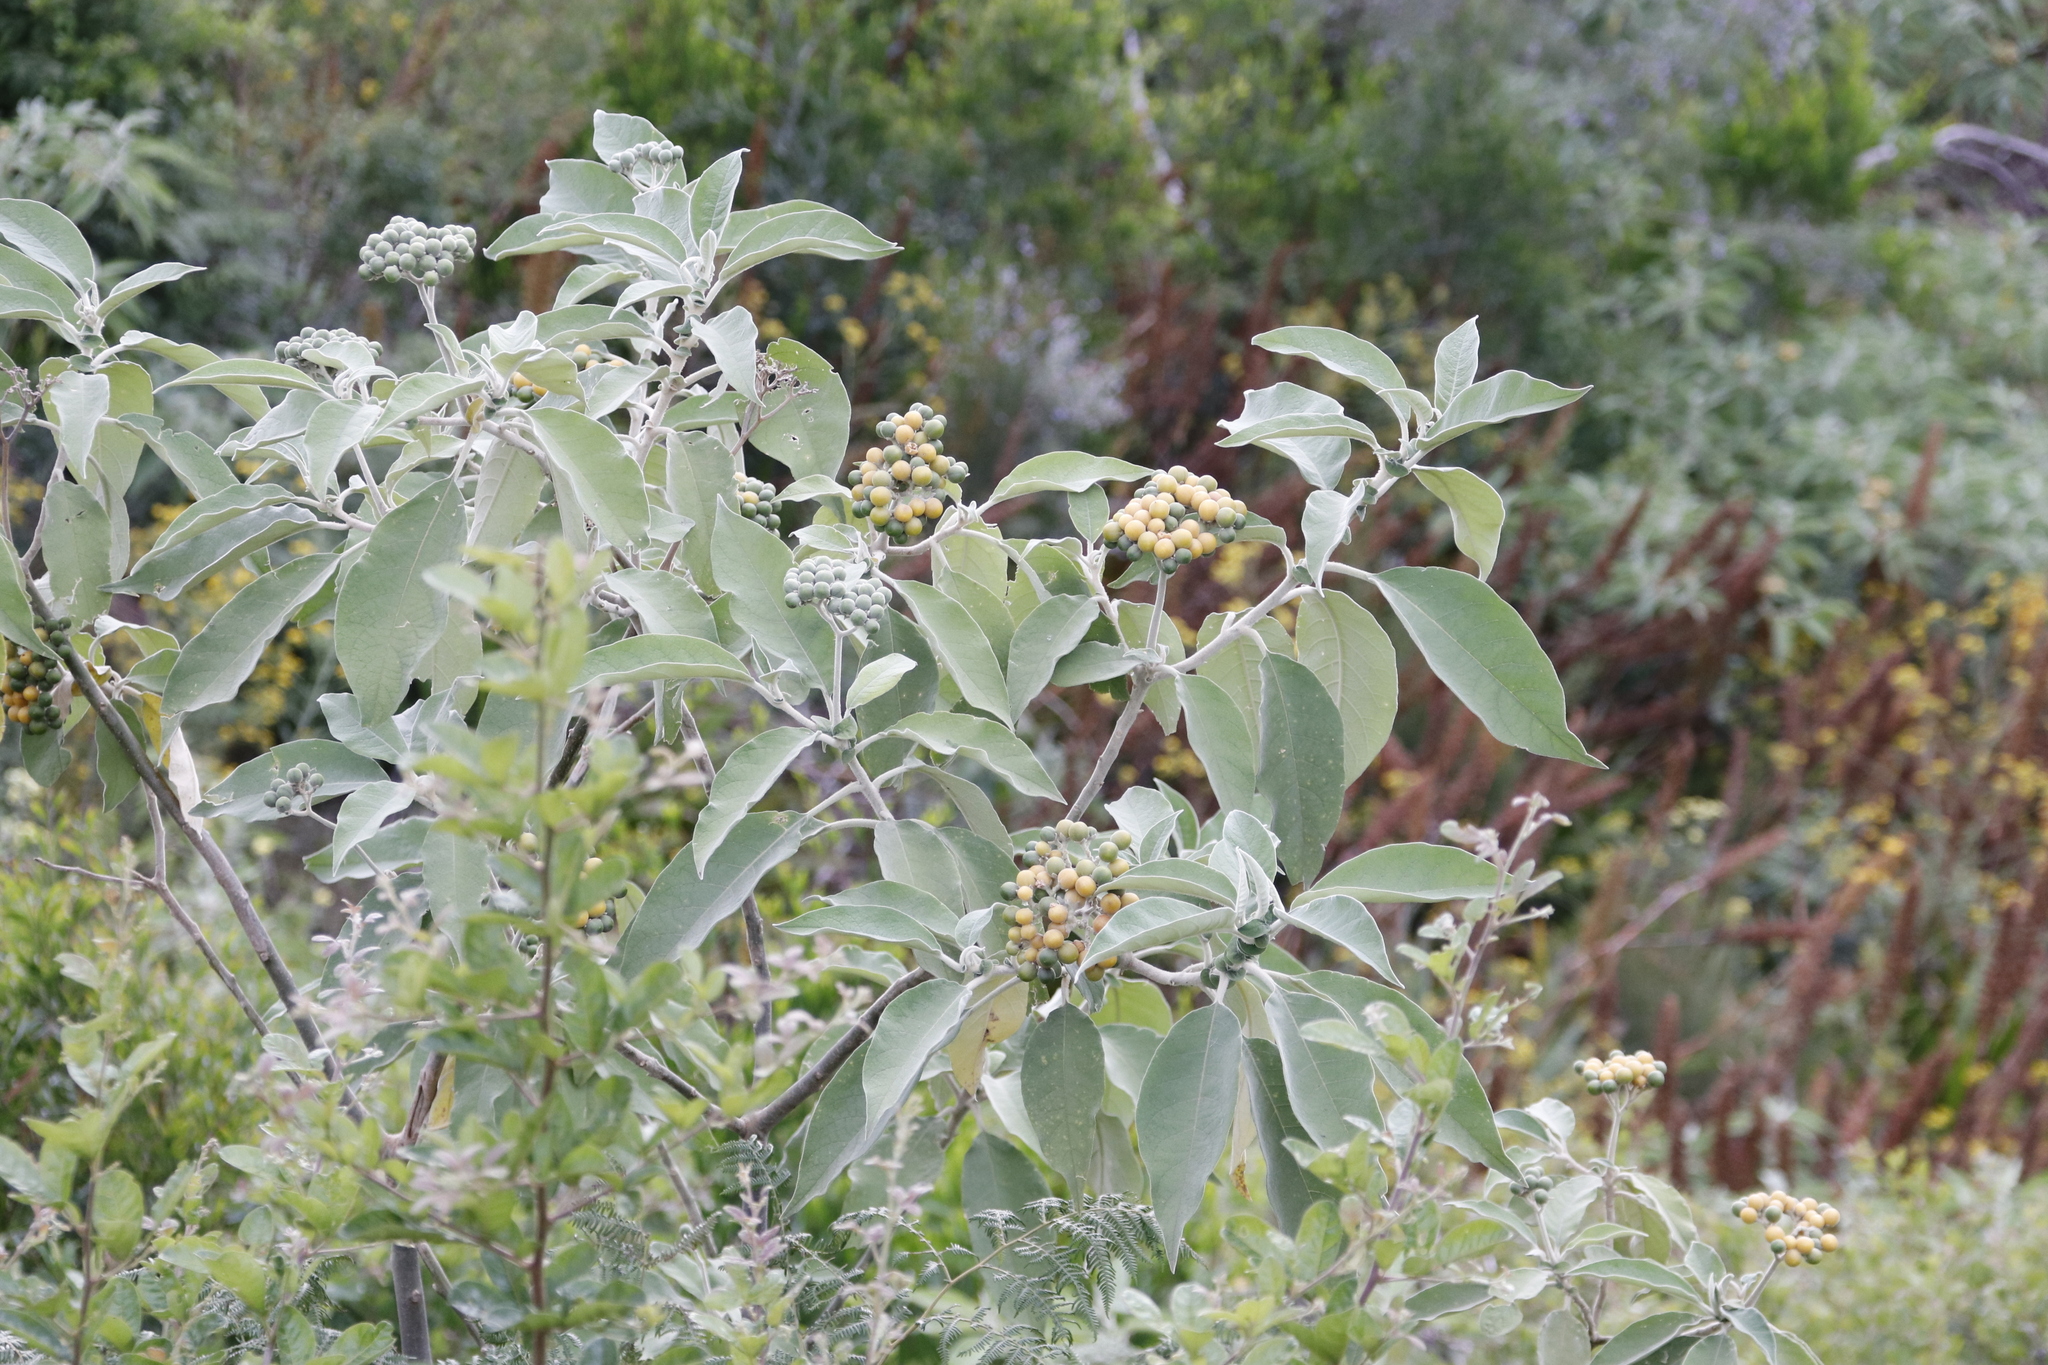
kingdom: Plantae
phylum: Tracheophyta
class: Magnoliopsida
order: Solanales
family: Solanaceae
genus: Solanum
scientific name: Solanum mauritianum
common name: Earleaf nightshade
